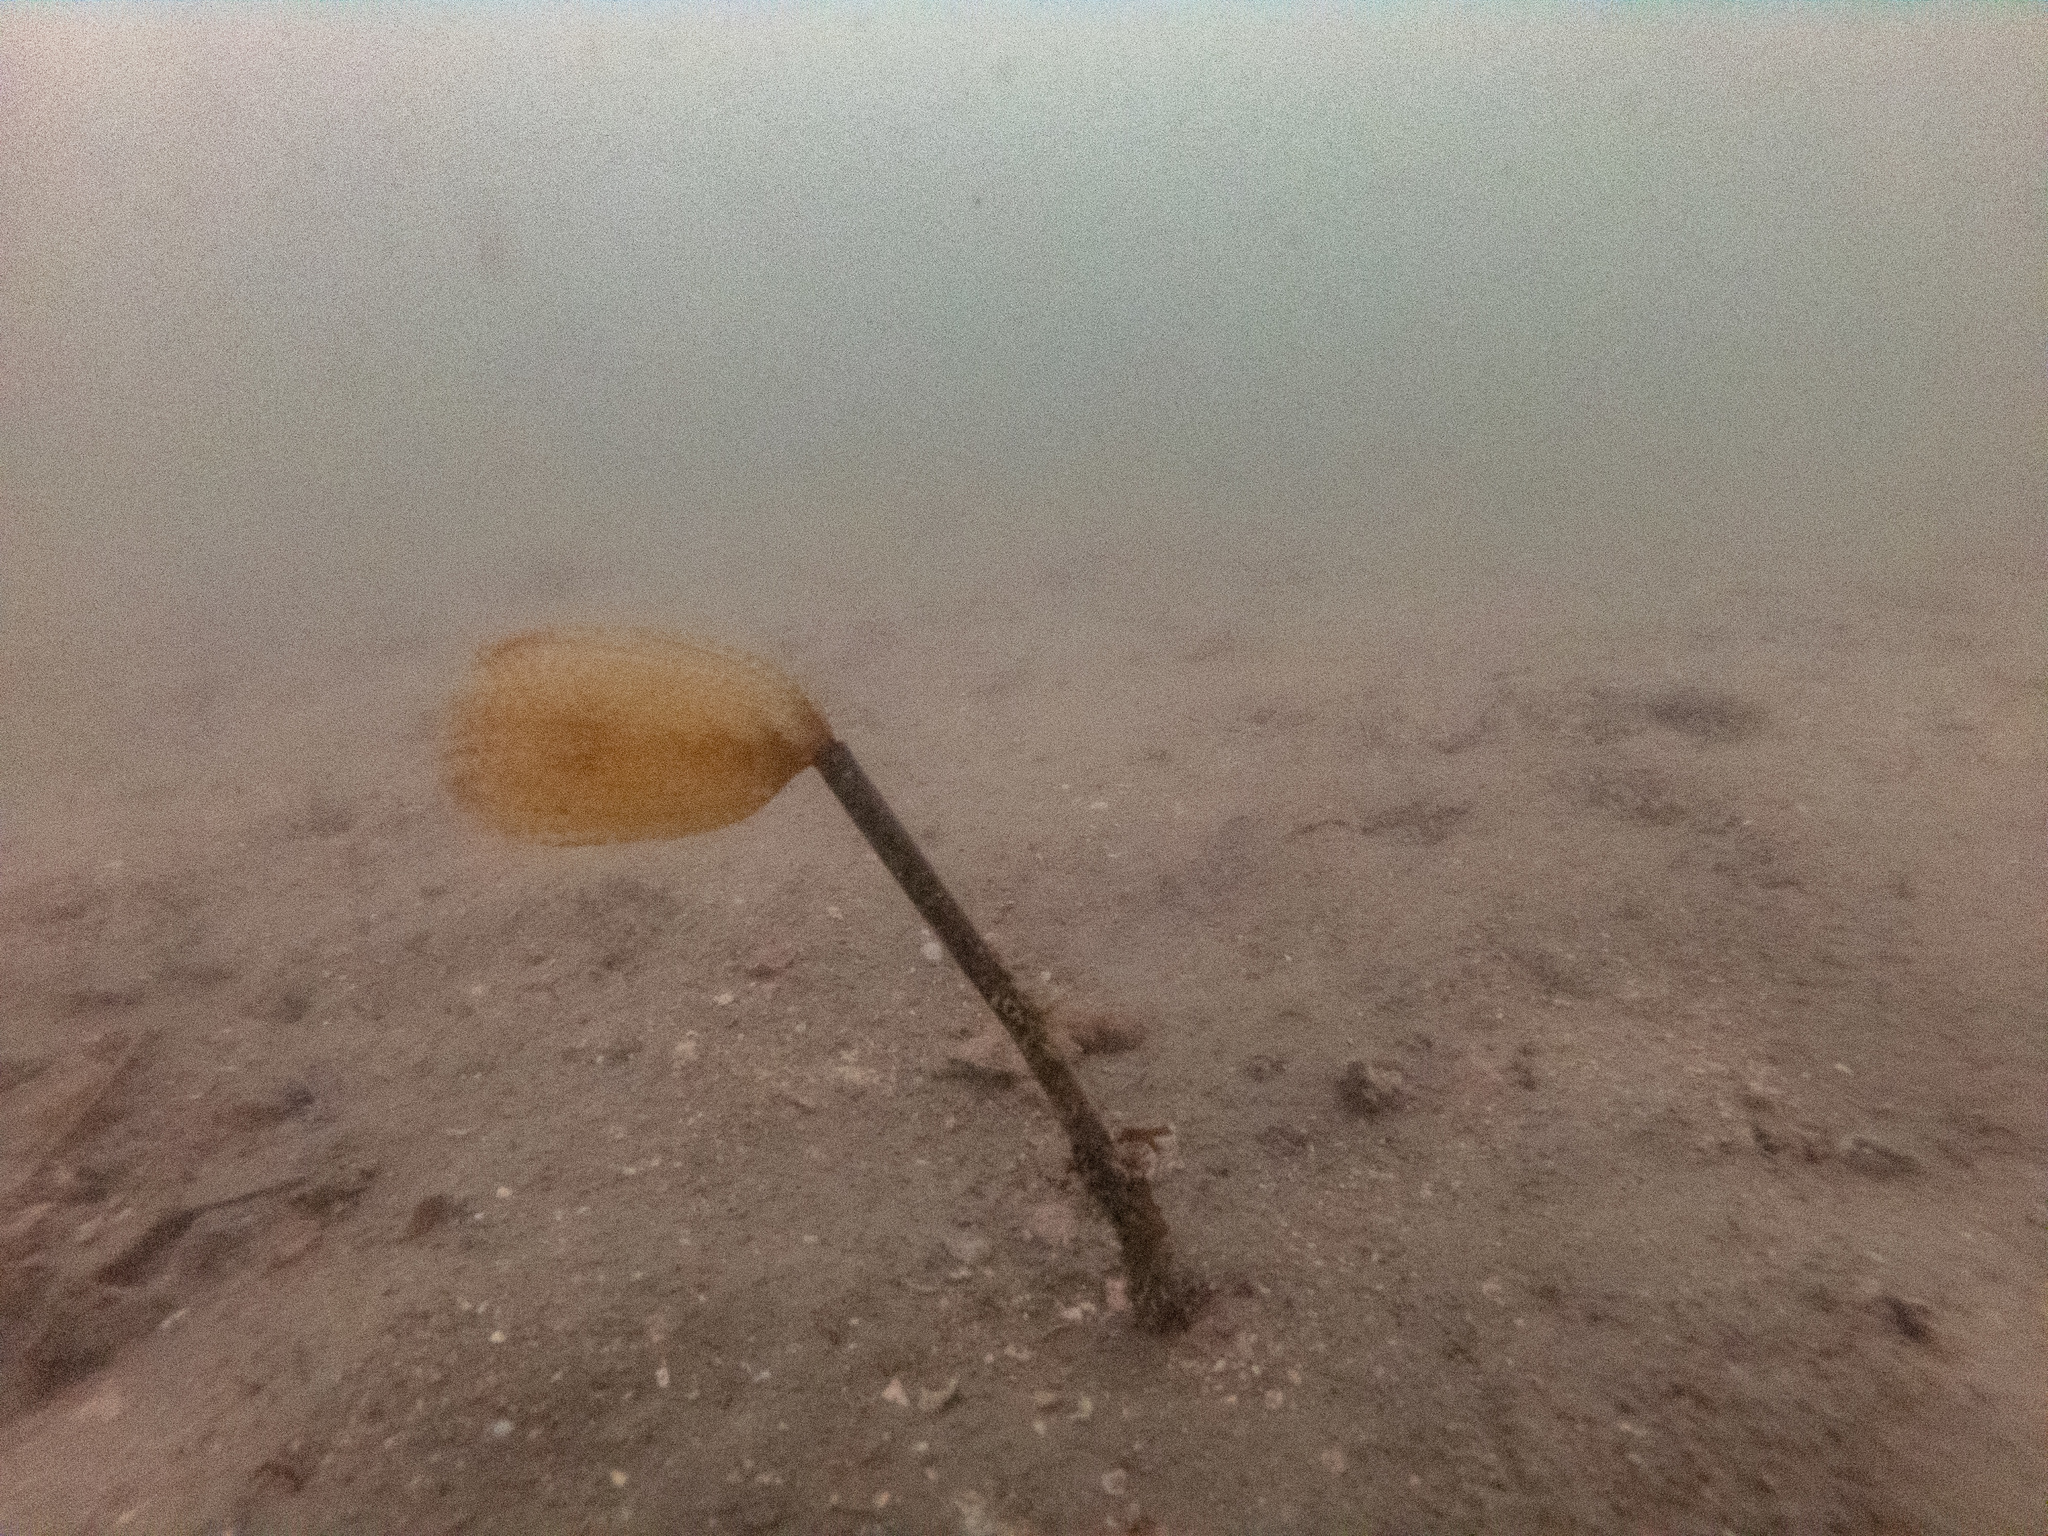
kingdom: Animalia
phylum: Annelida
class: Polychaeta
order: Sabellida
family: Sabellidae
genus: Sabella
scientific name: Sabella spallanzanii
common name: Feather duster worm
